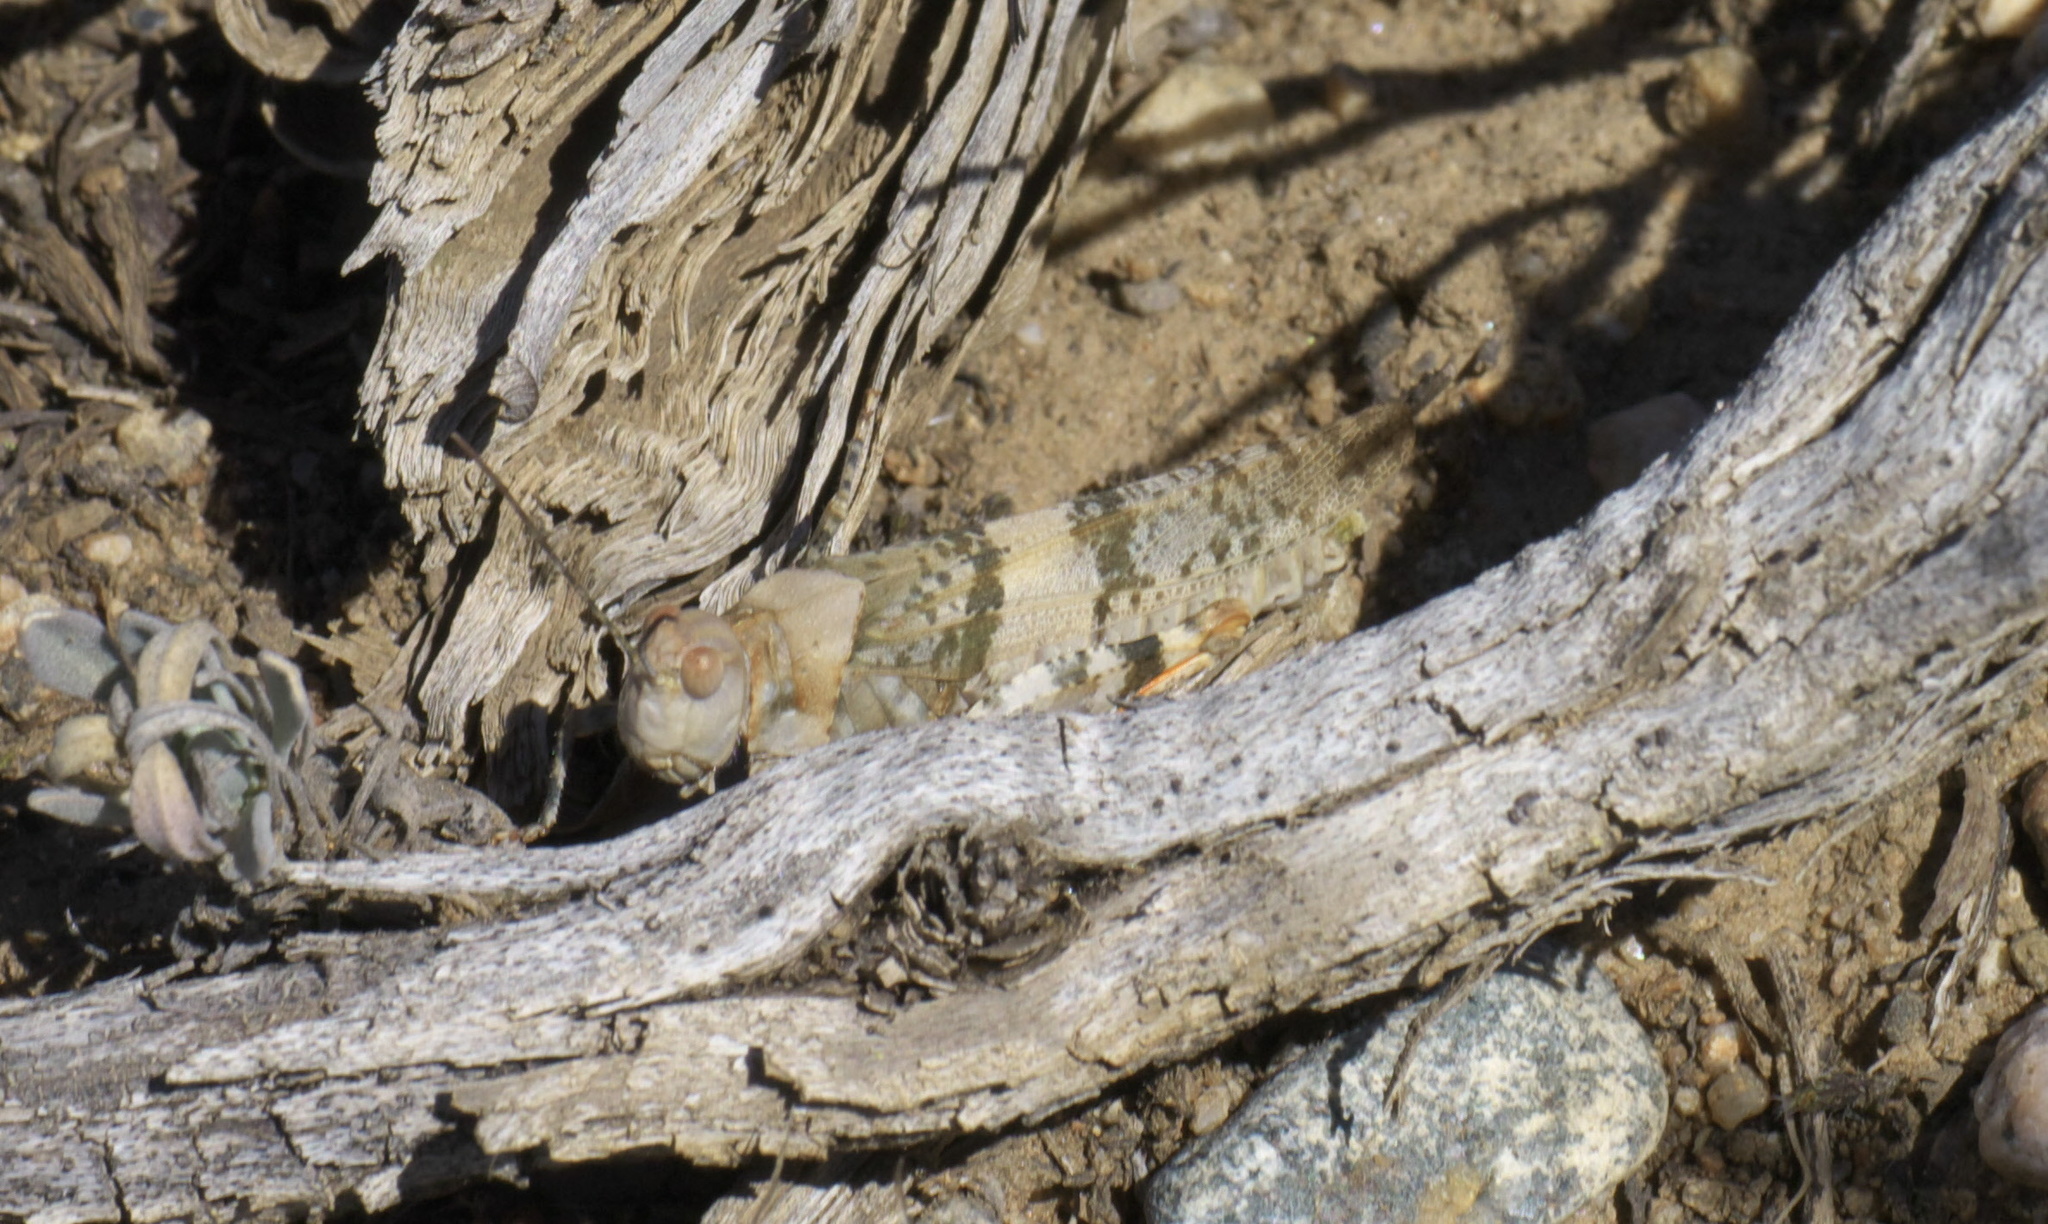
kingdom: Animalia
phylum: Arthropoda
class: Insecta
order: Orthoptera
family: Acrididae
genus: Trimerotropis
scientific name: Trimerotropis latifasciata
